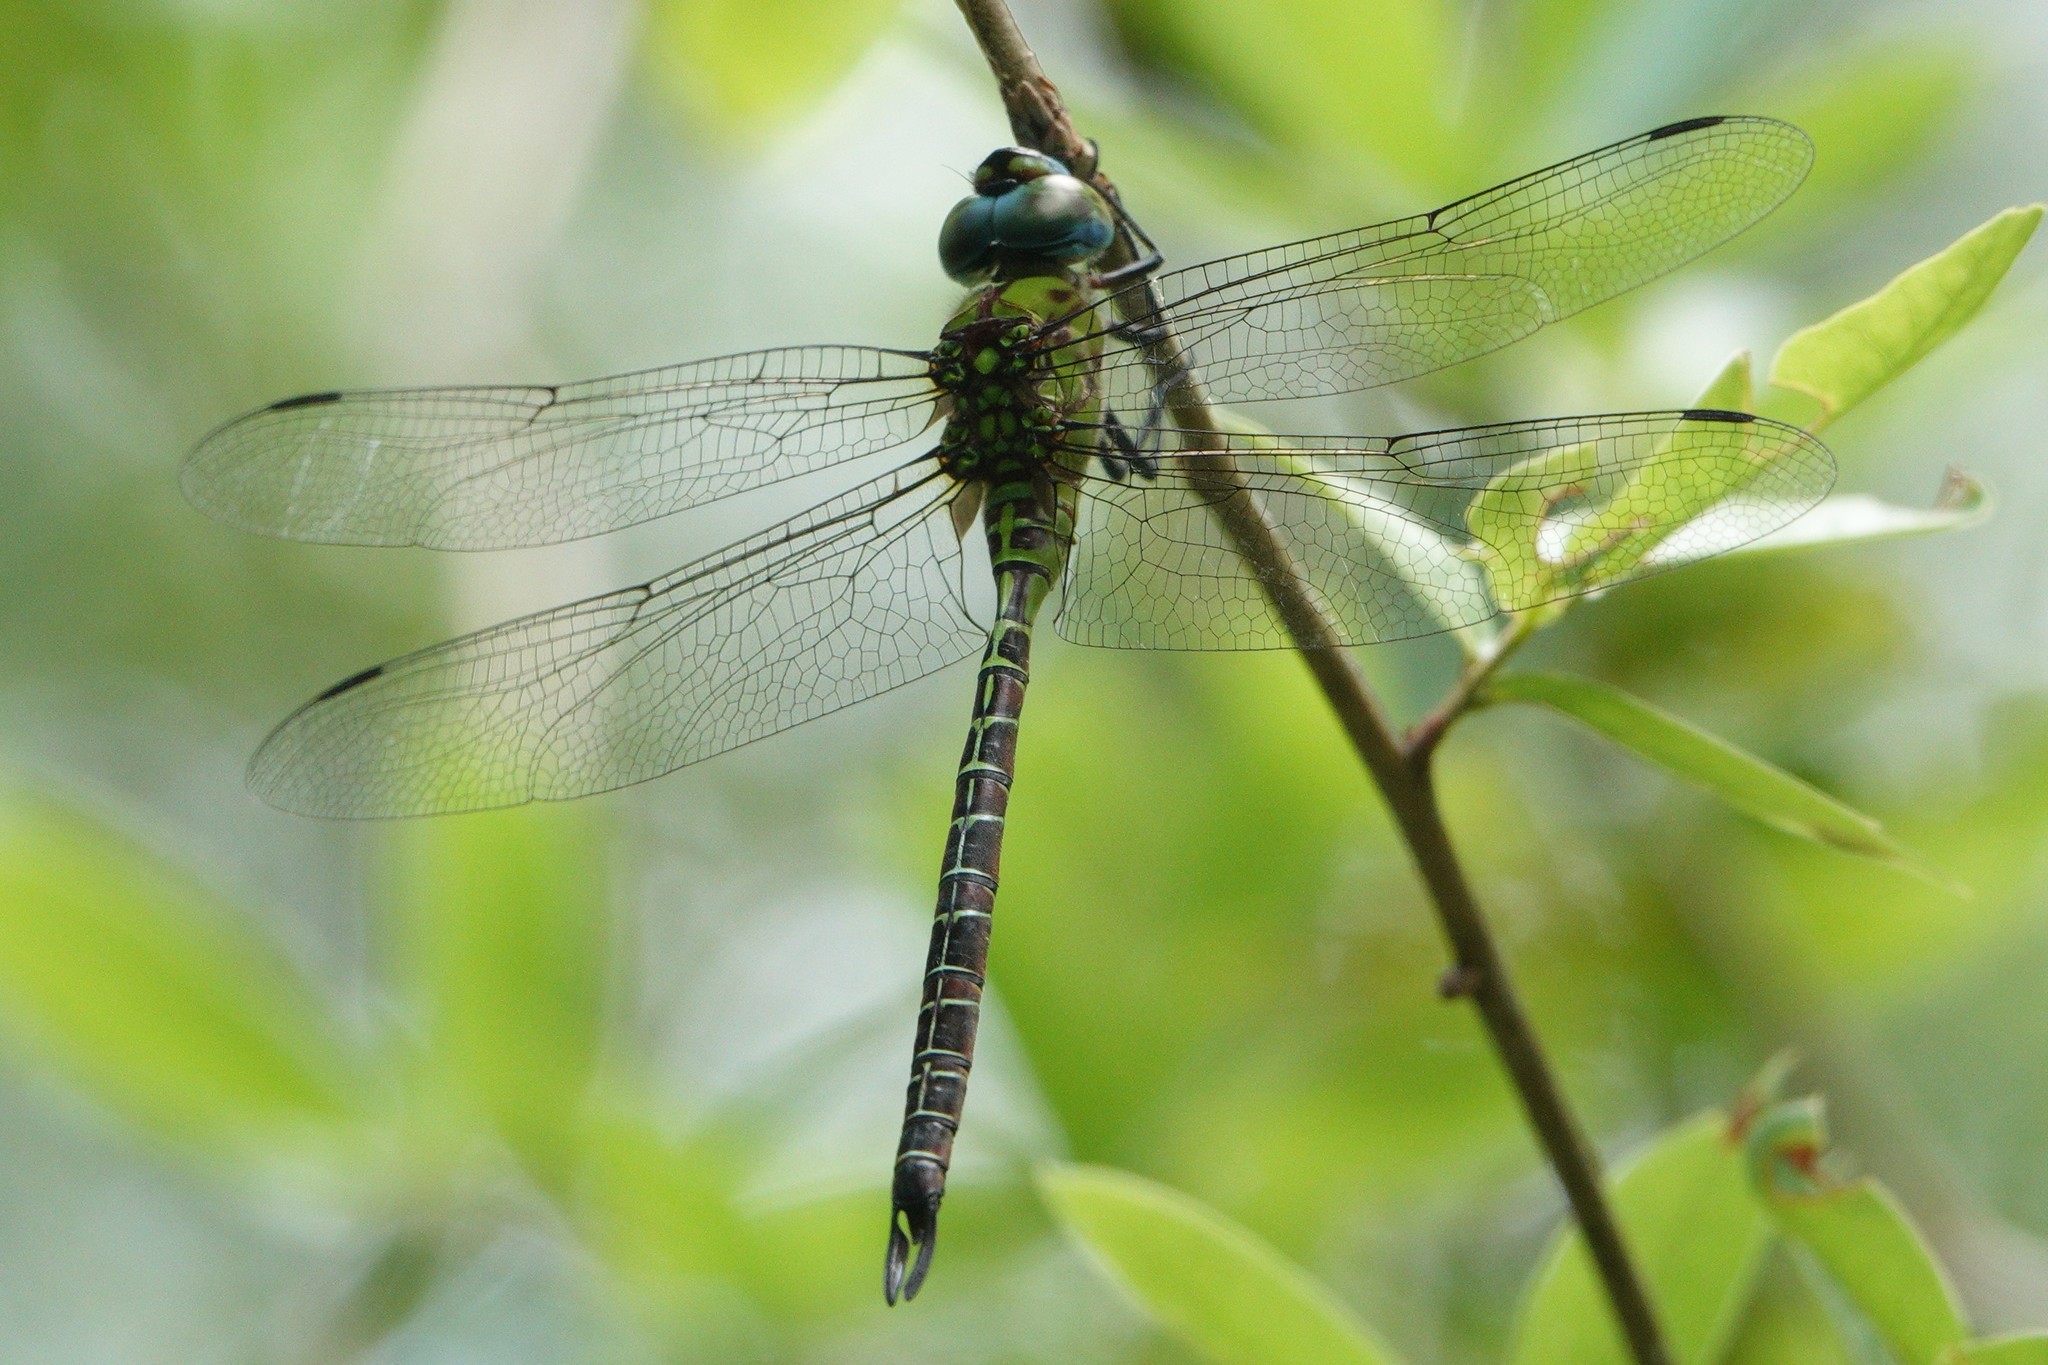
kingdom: Animalia
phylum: Arthropoda
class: Insecta
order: Odonata
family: Aeshnidae
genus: Coryphaeschna
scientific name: Coryphaeschna adnexa
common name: Blue-faced darner
